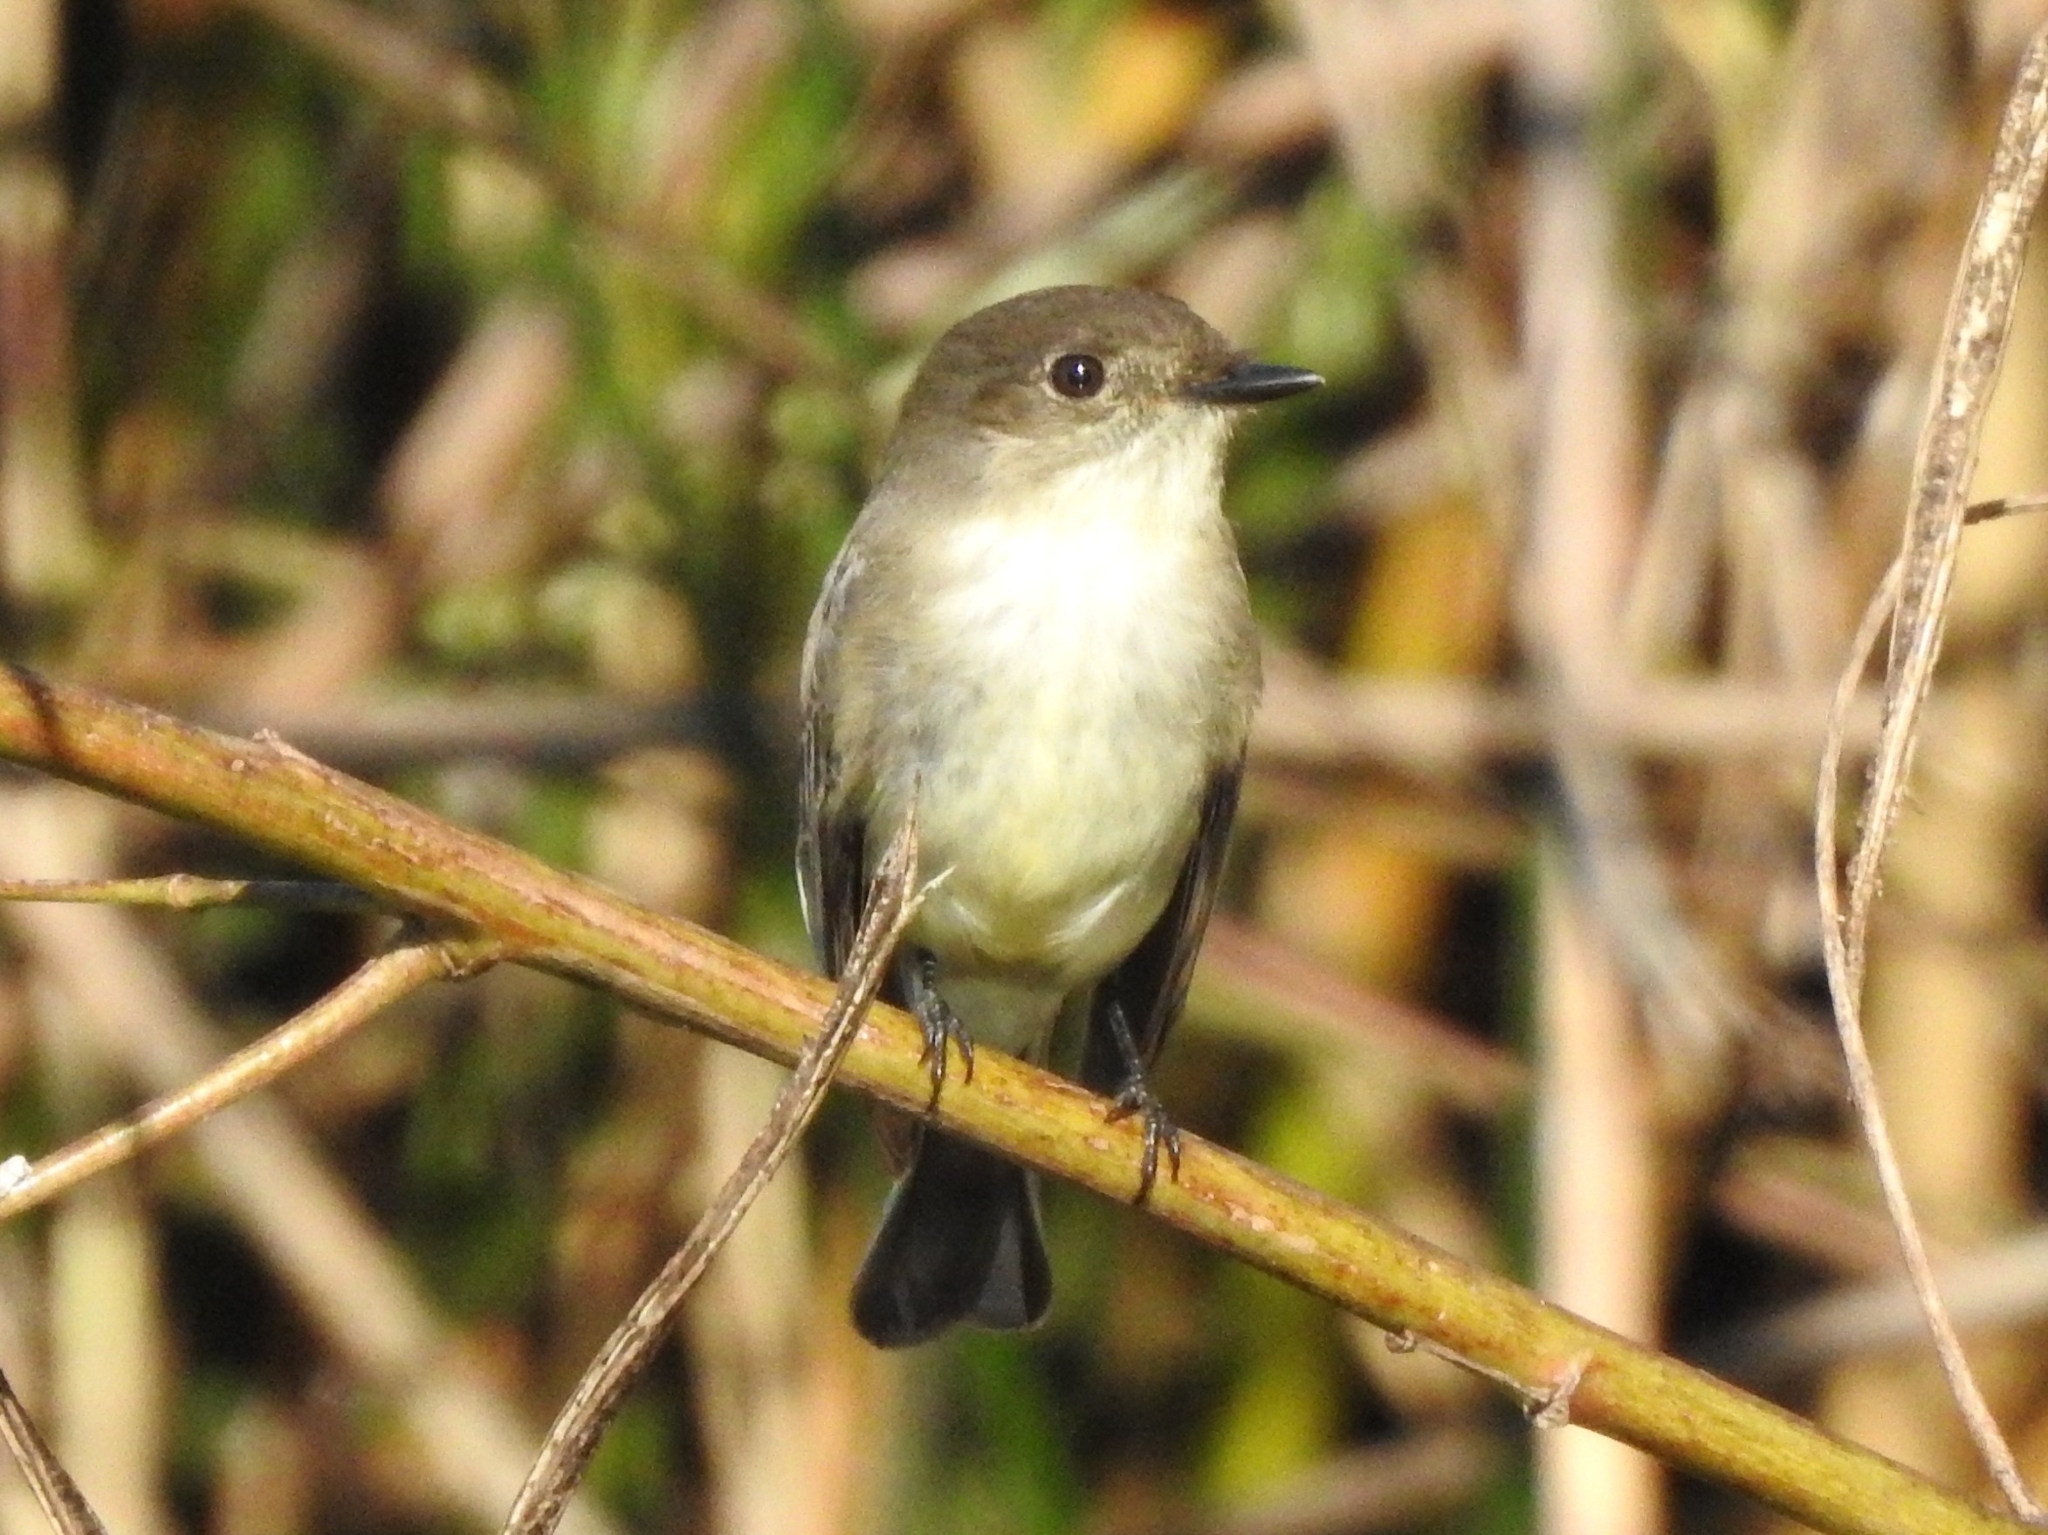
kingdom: Animalia
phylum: Chordata
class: Aves
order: Passeriformes
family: Tyrannidae
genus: Sayornis
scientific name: Sayornis phoebe
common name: Eastern phoebe
